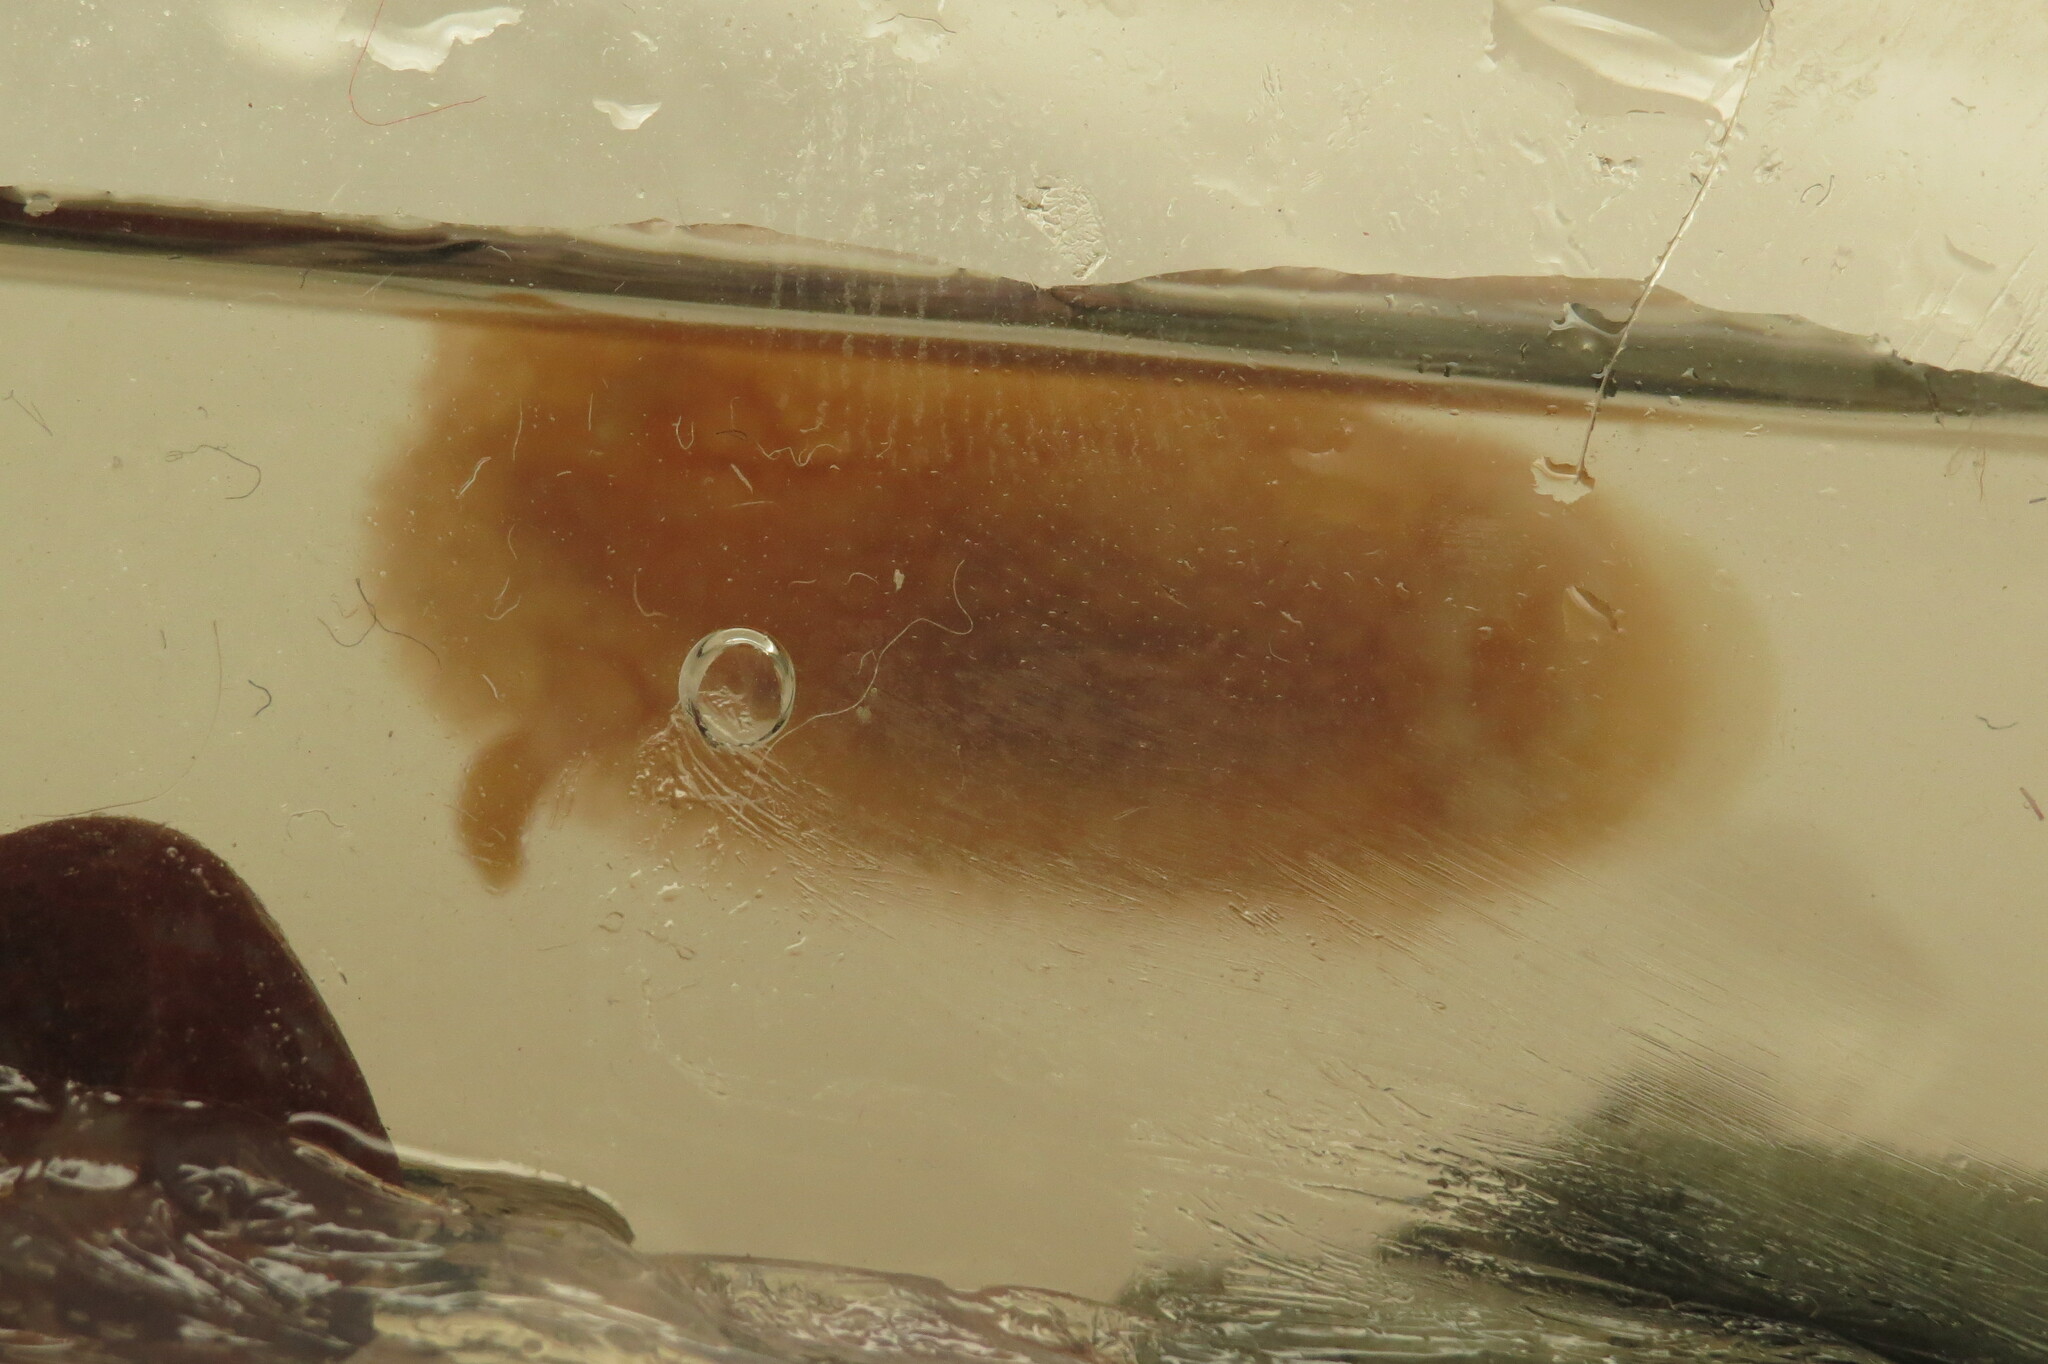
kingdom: Animalia
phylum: Mollusca
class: Gastropoda
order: Nudibranchia
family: Onchidorididae
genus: Acanthodoris
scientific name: Acanthodoris pilosa
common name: Hairy spiny doris
